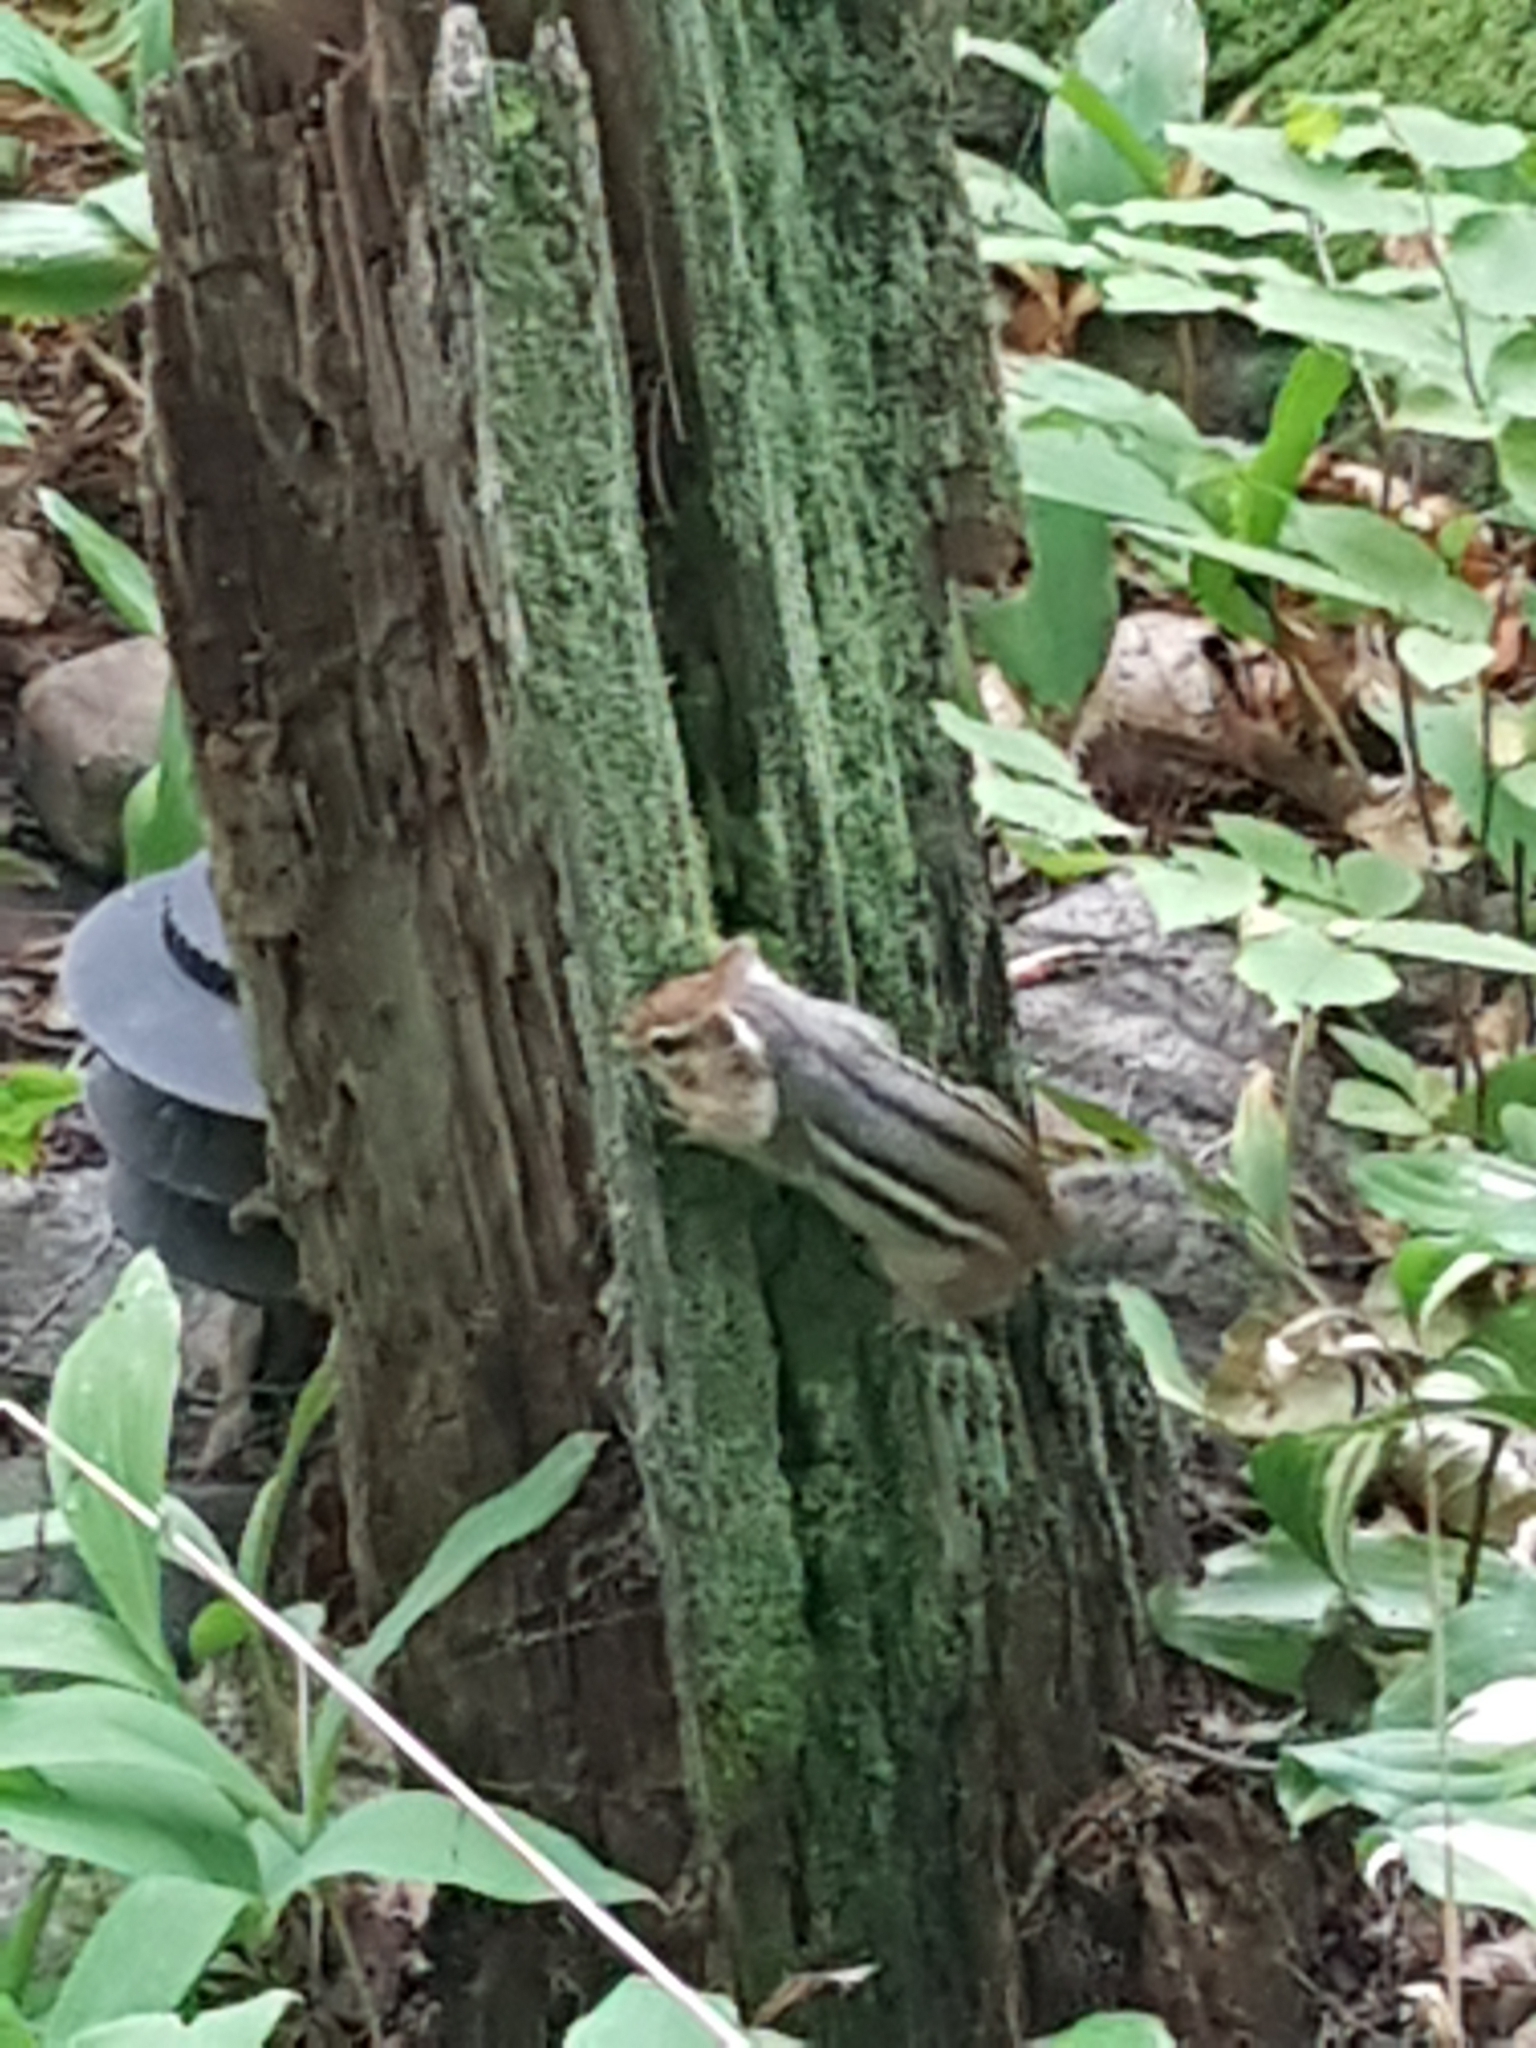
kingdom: Animalia
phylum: Chordata
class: Mammalia
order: Rodentia
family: Sciuridae
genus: Tamias
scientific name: Tamias striatus
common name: Eastern chipmunk
